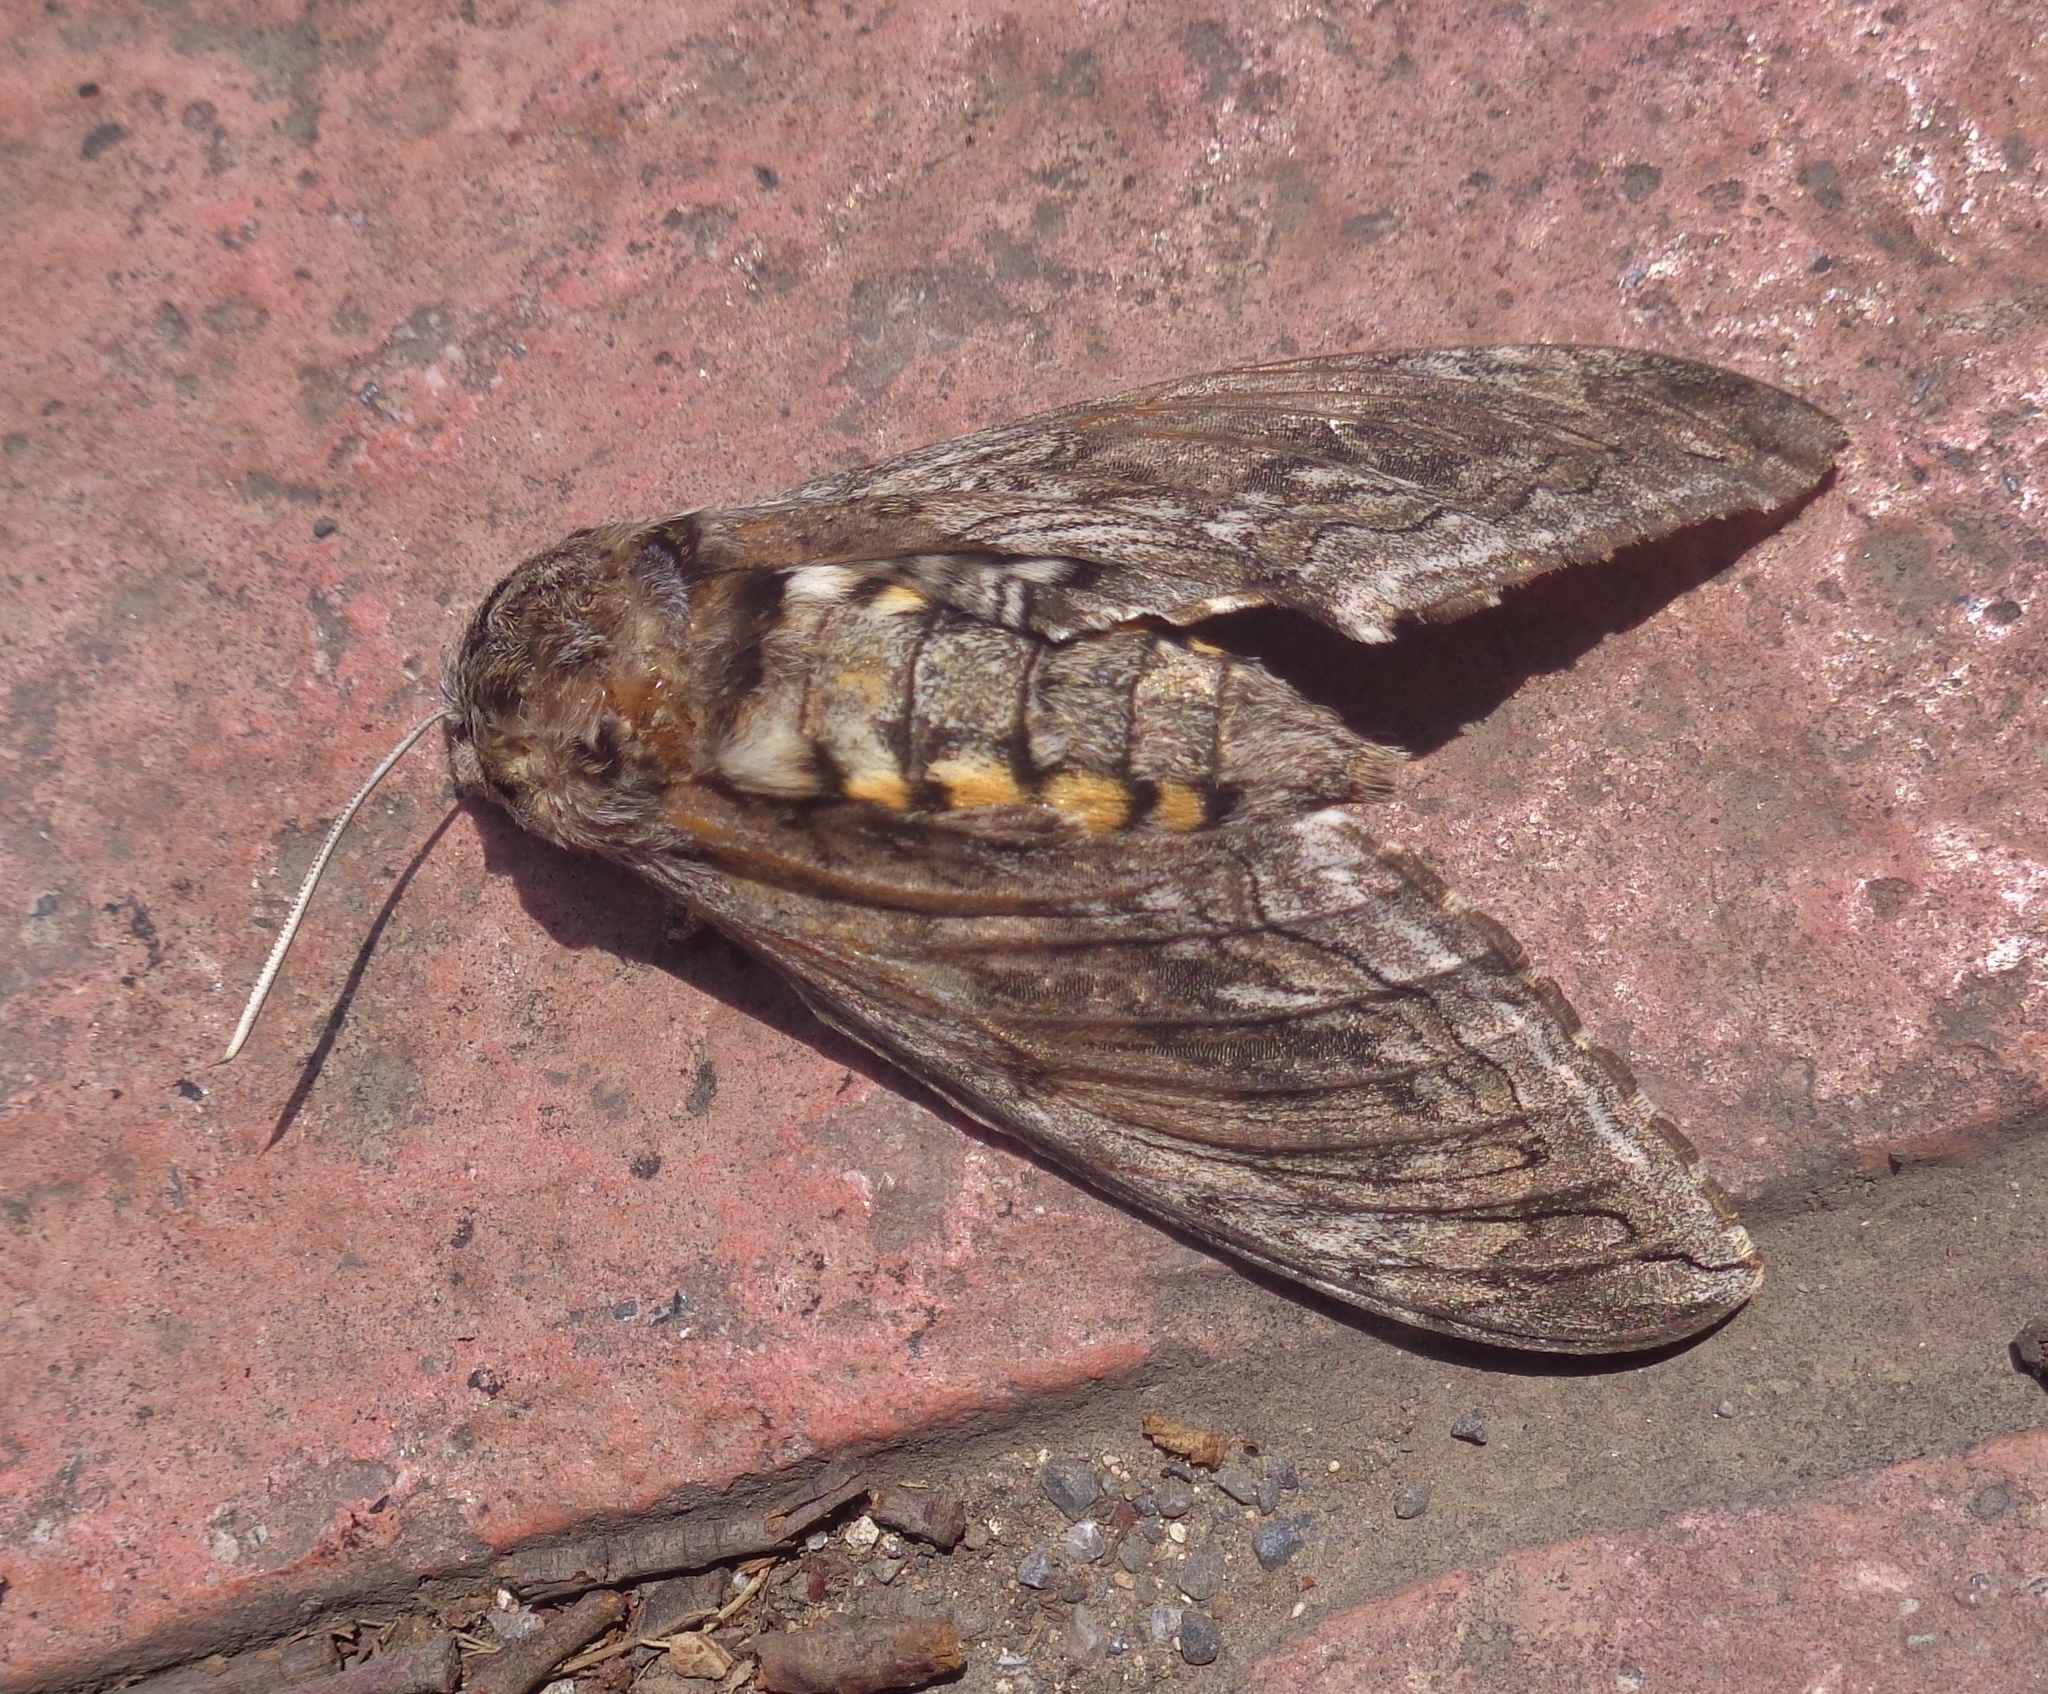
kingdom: Animalia
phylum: Arthropoda
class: Insecta
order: Lepidoptera
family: Sphingidae
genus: Manduca
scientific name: Manduca sexta
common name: Carolina sphinx
